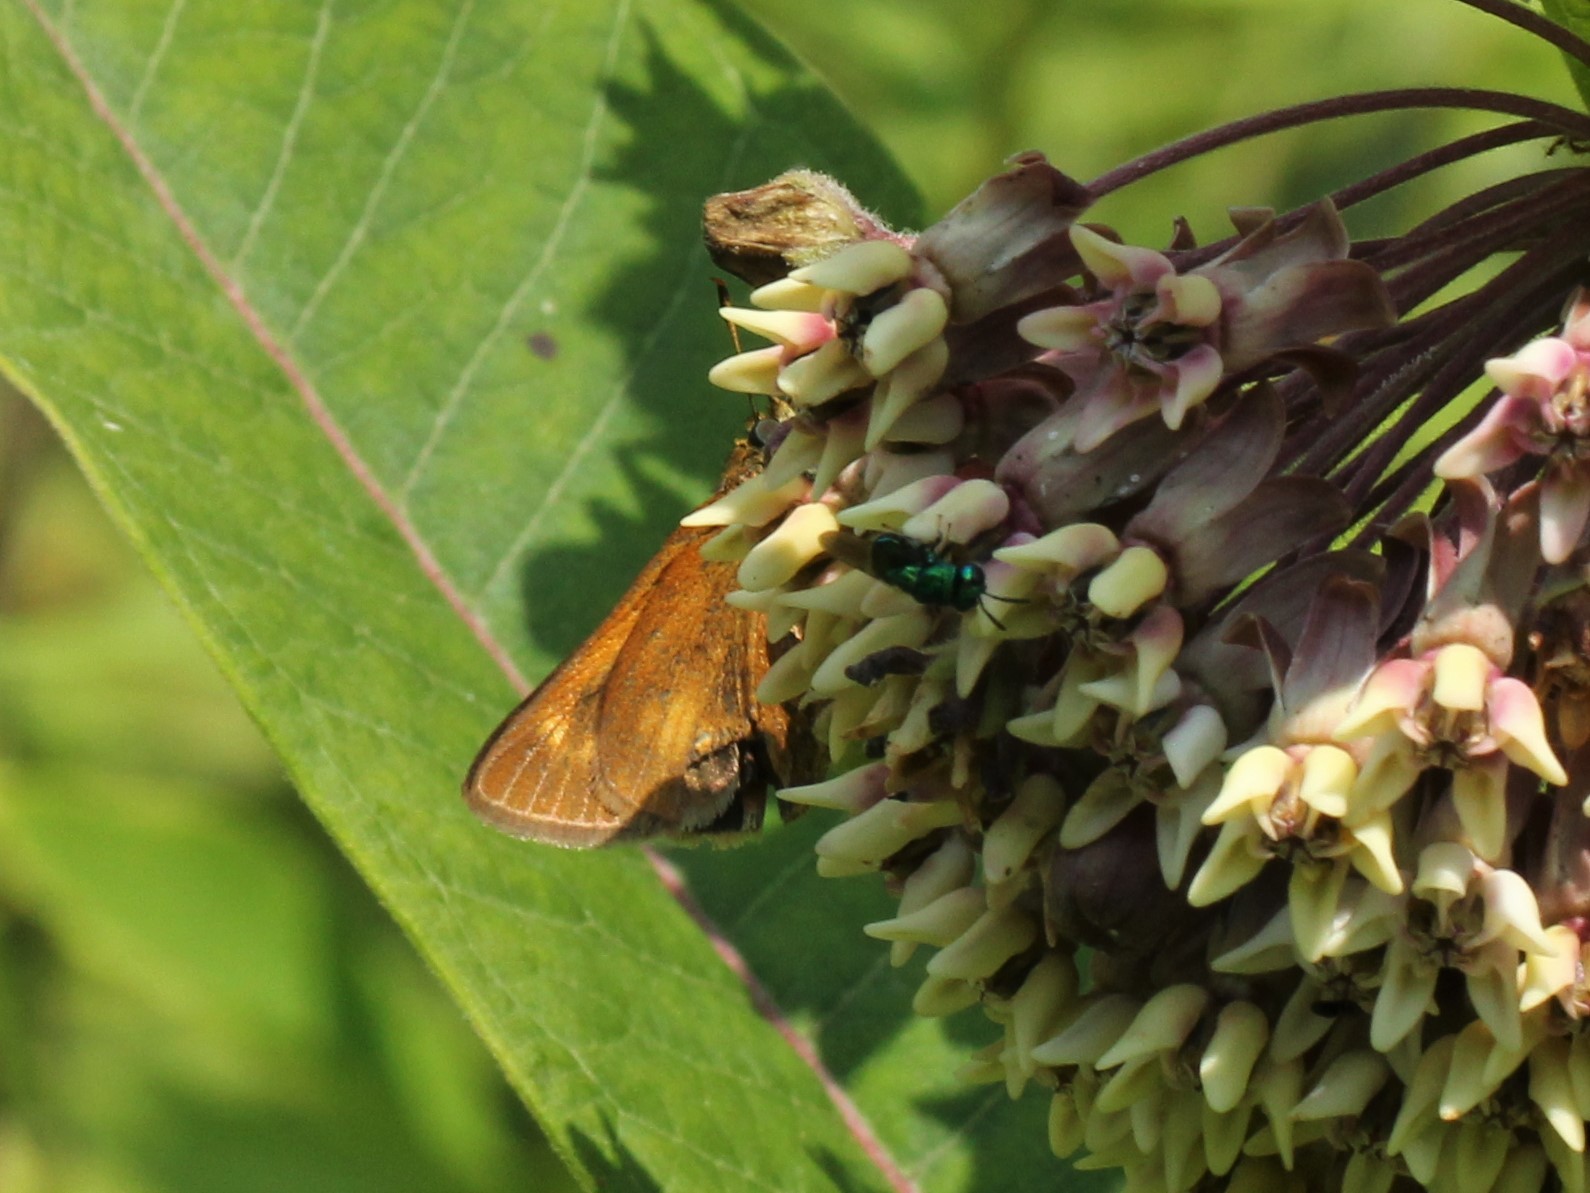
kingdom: Animalia
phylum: Arthropoda
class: Insecta
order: Lepidoptera
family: Hesperiidae
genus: Euphyes
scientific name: Euphyes conspicua
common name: Black dash
